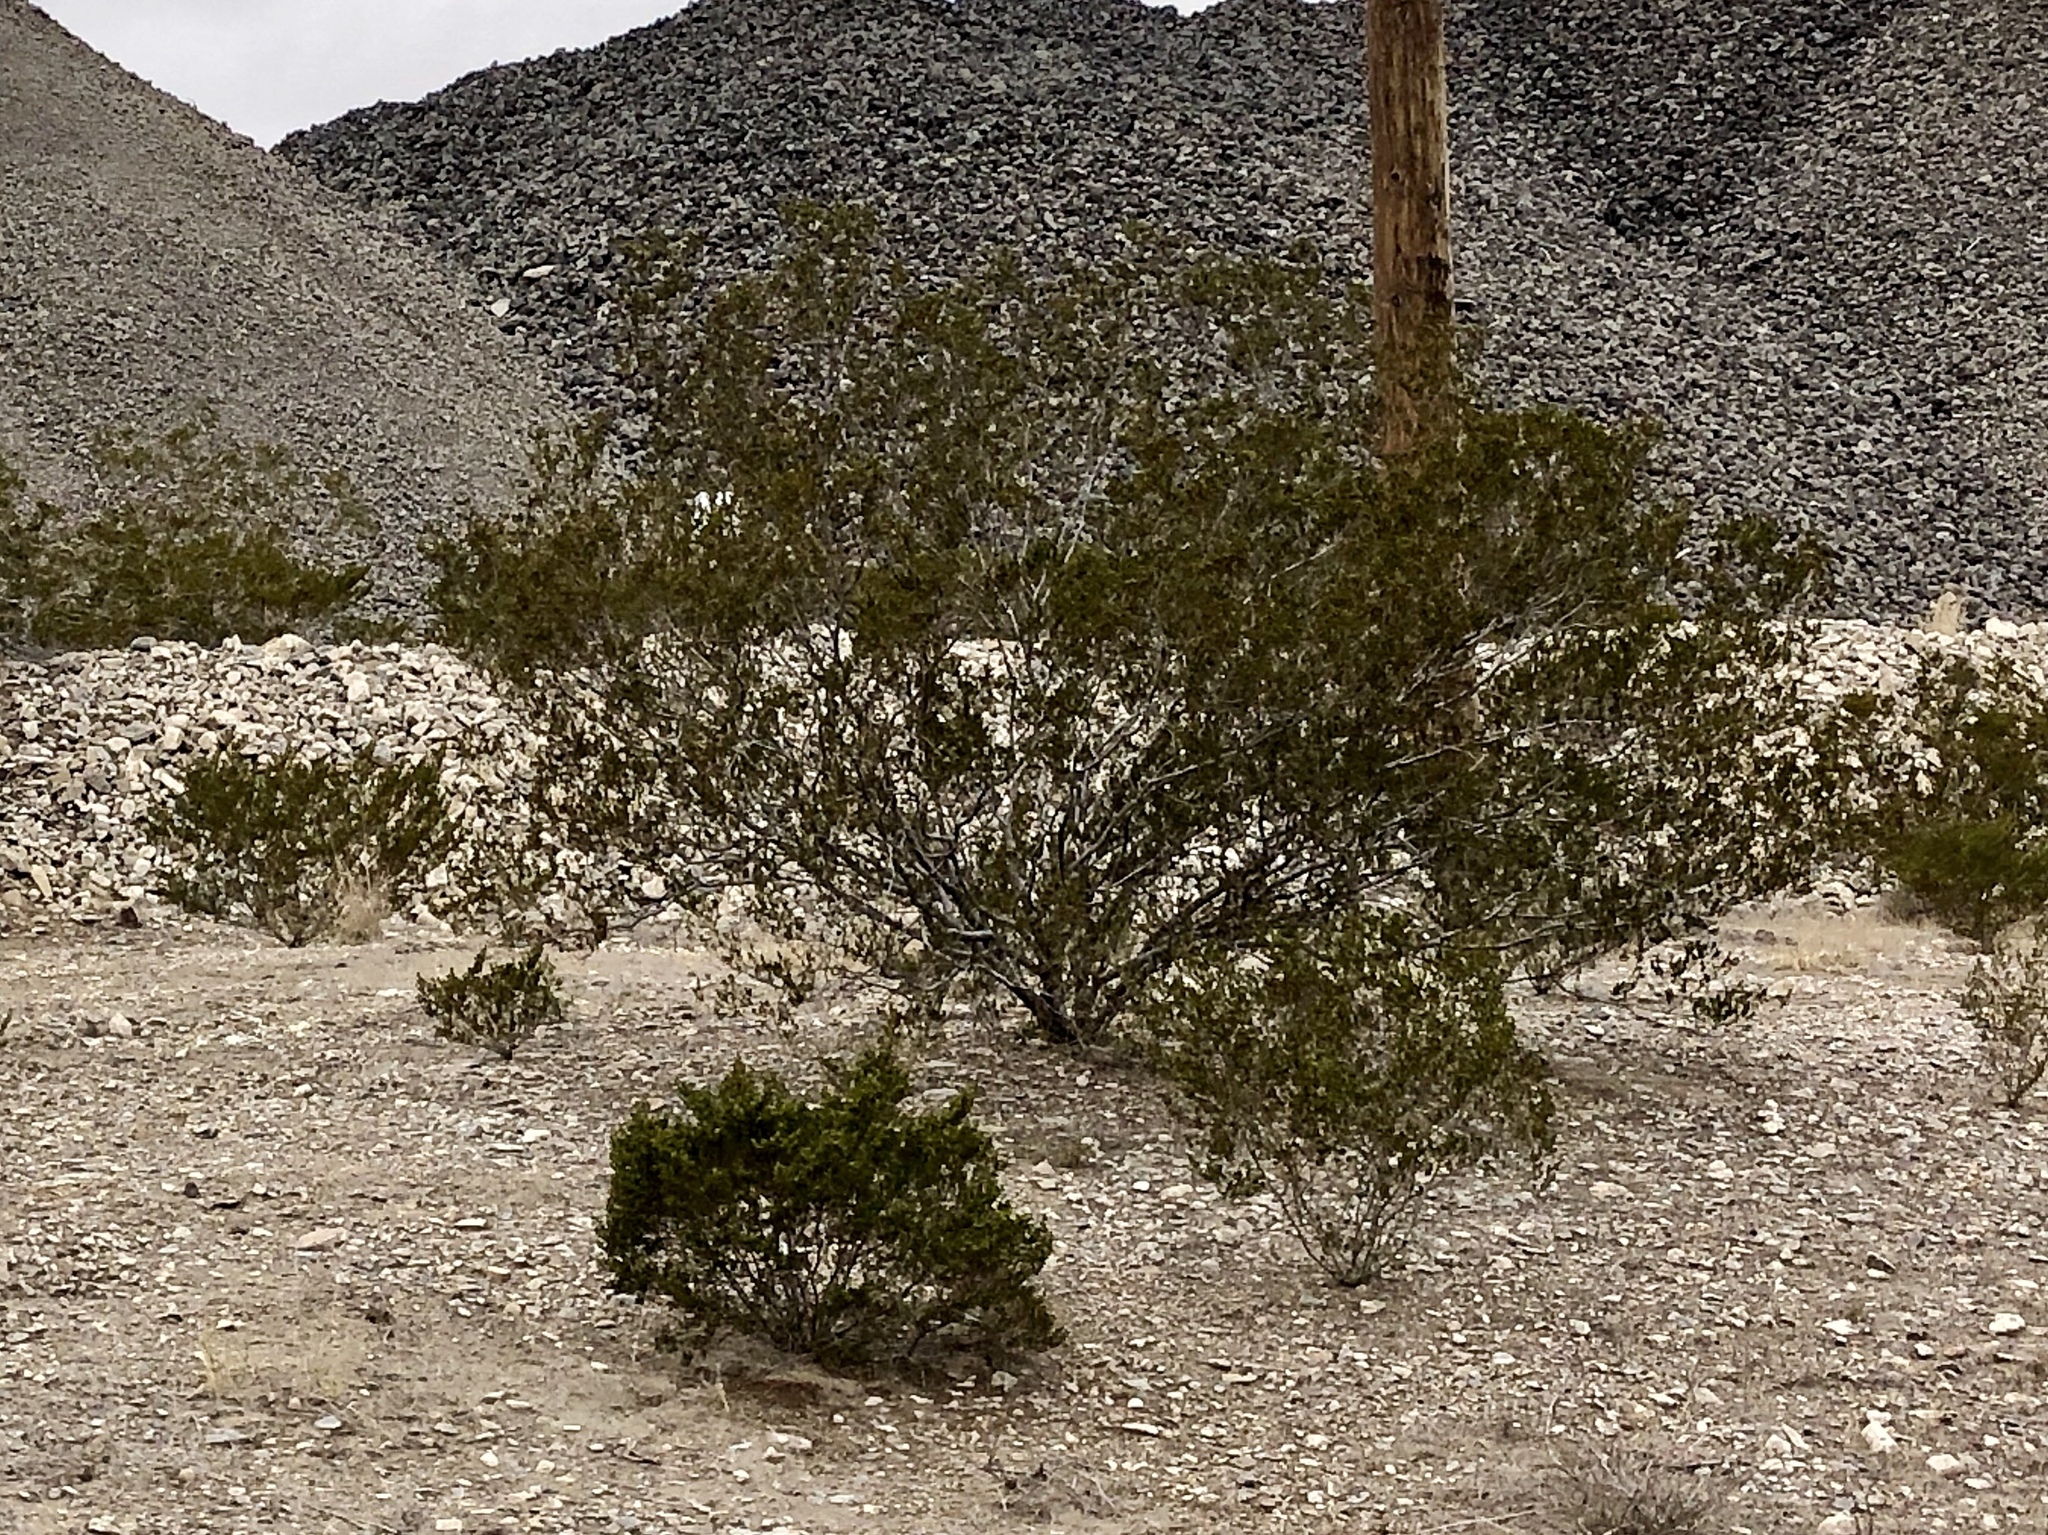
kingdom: Plantae
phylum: Tracheophyta
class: Magnoliopsida
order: Zygophyllales
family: Zygophyllaceae
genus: Larrea
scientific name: Larrea tridentata
